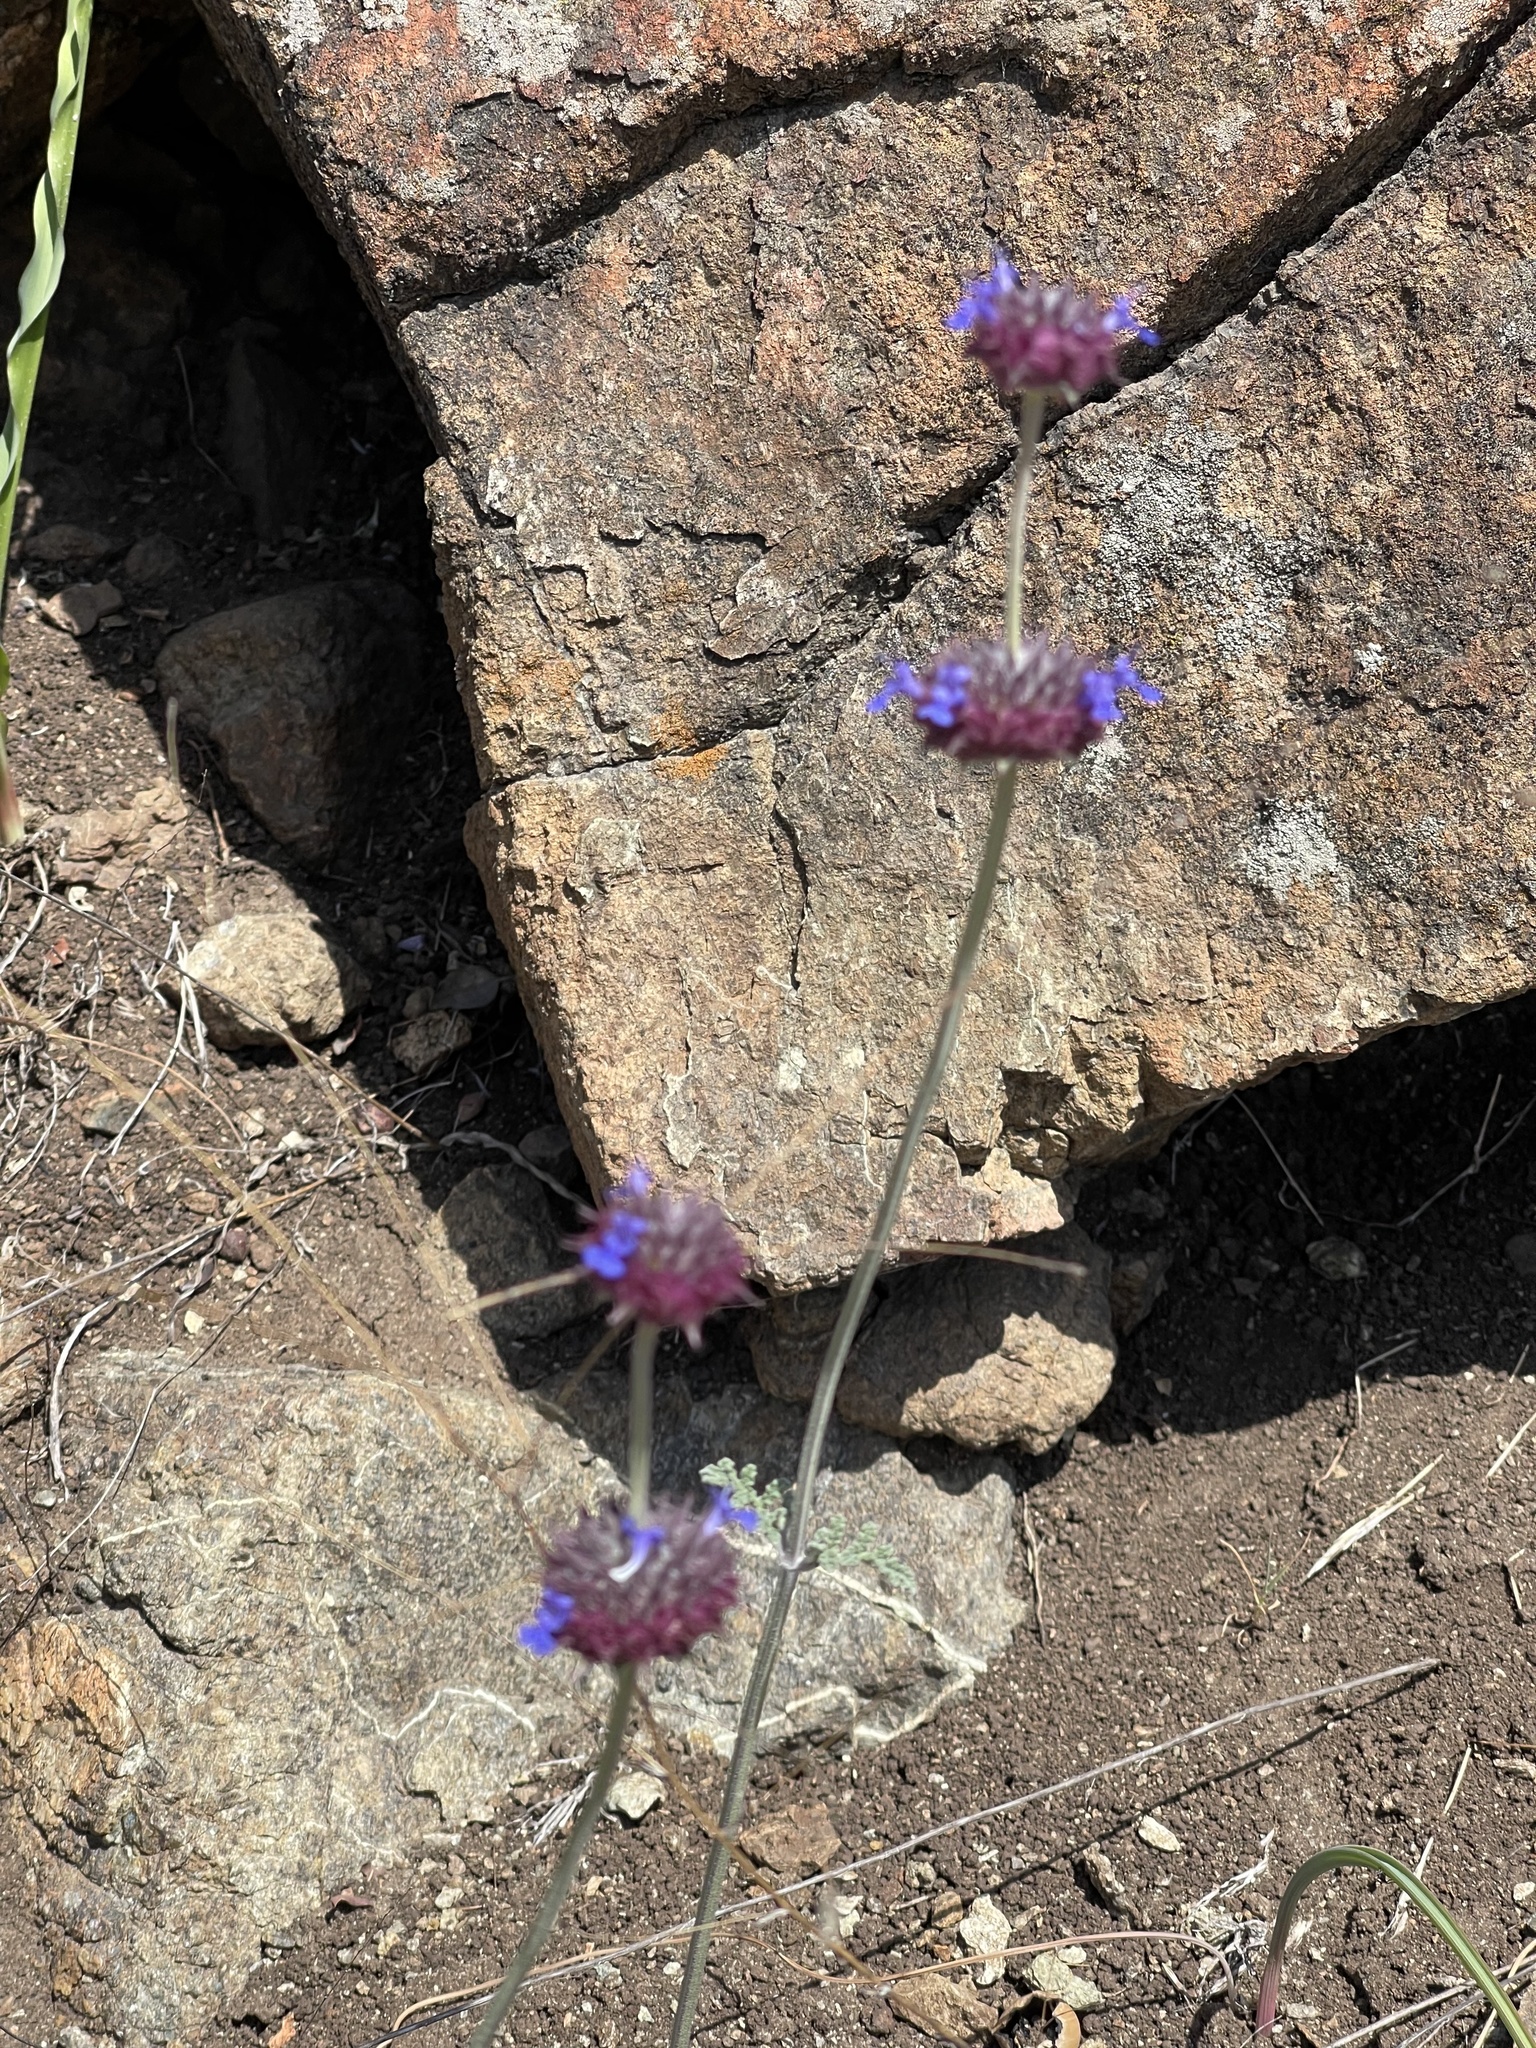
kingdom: Plantae
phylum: Tracheophyta
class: Magnoliopsida
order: Lamiales
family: Lamiaceae
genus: Salvia
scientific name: Salvia columbariae
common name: Chia
